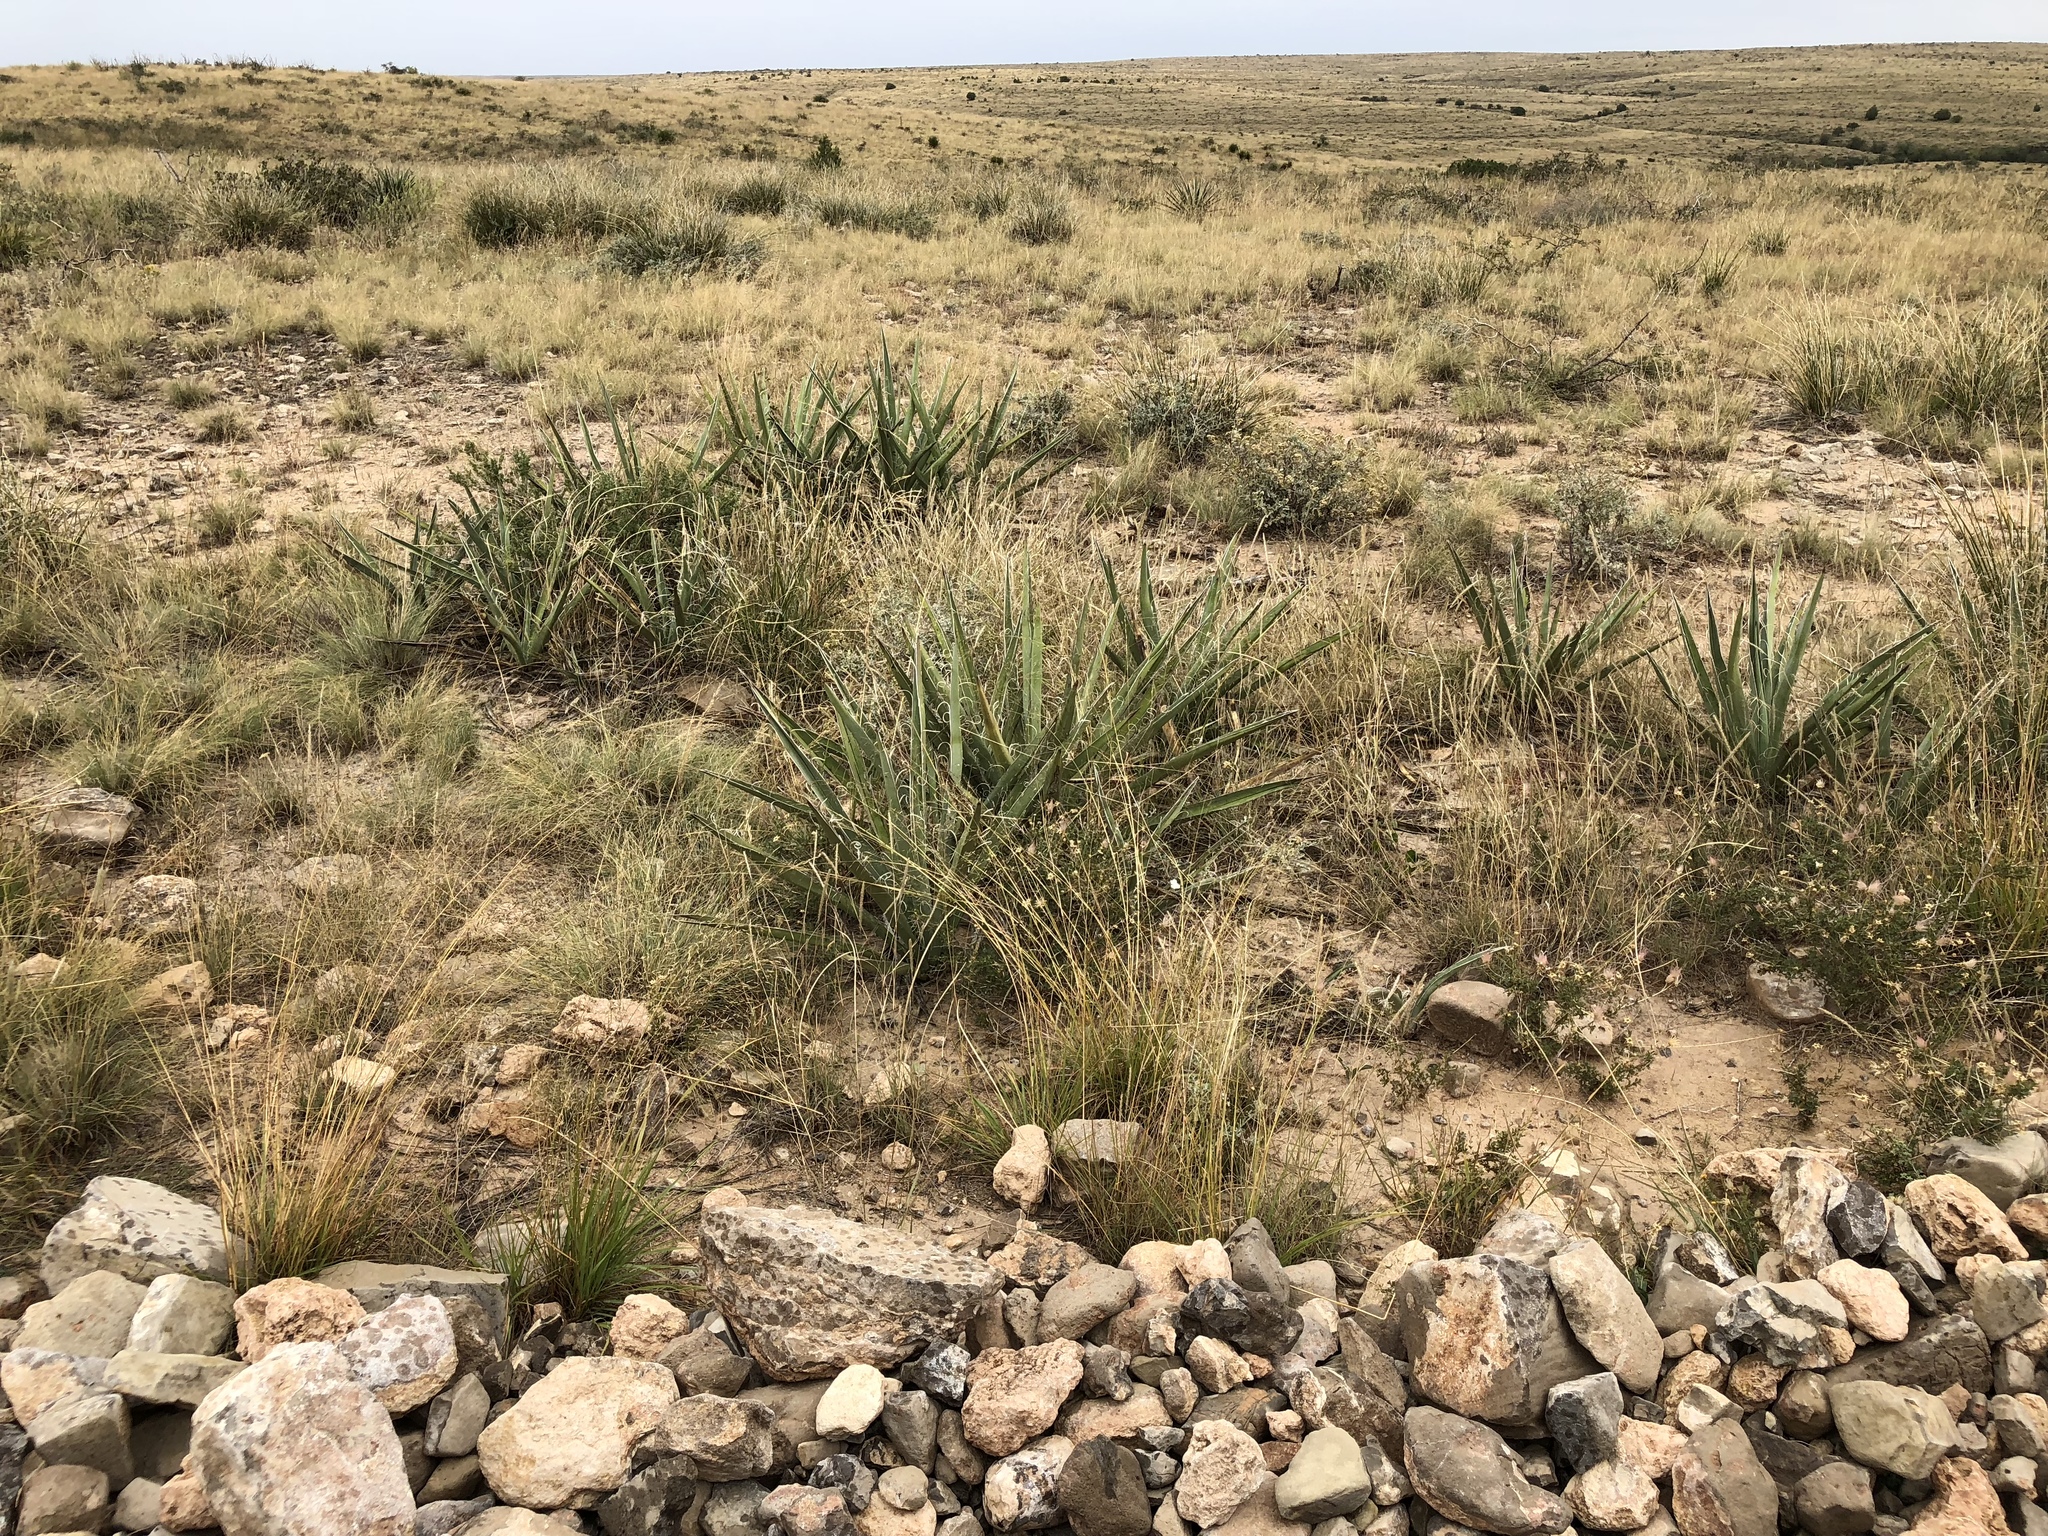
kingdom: Plantae
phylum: Tracheophyta
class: Liliopsida
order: Asparagales
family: Asparagaceae
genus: Yucca
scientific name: Yucca baccata
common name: Banana yucca
